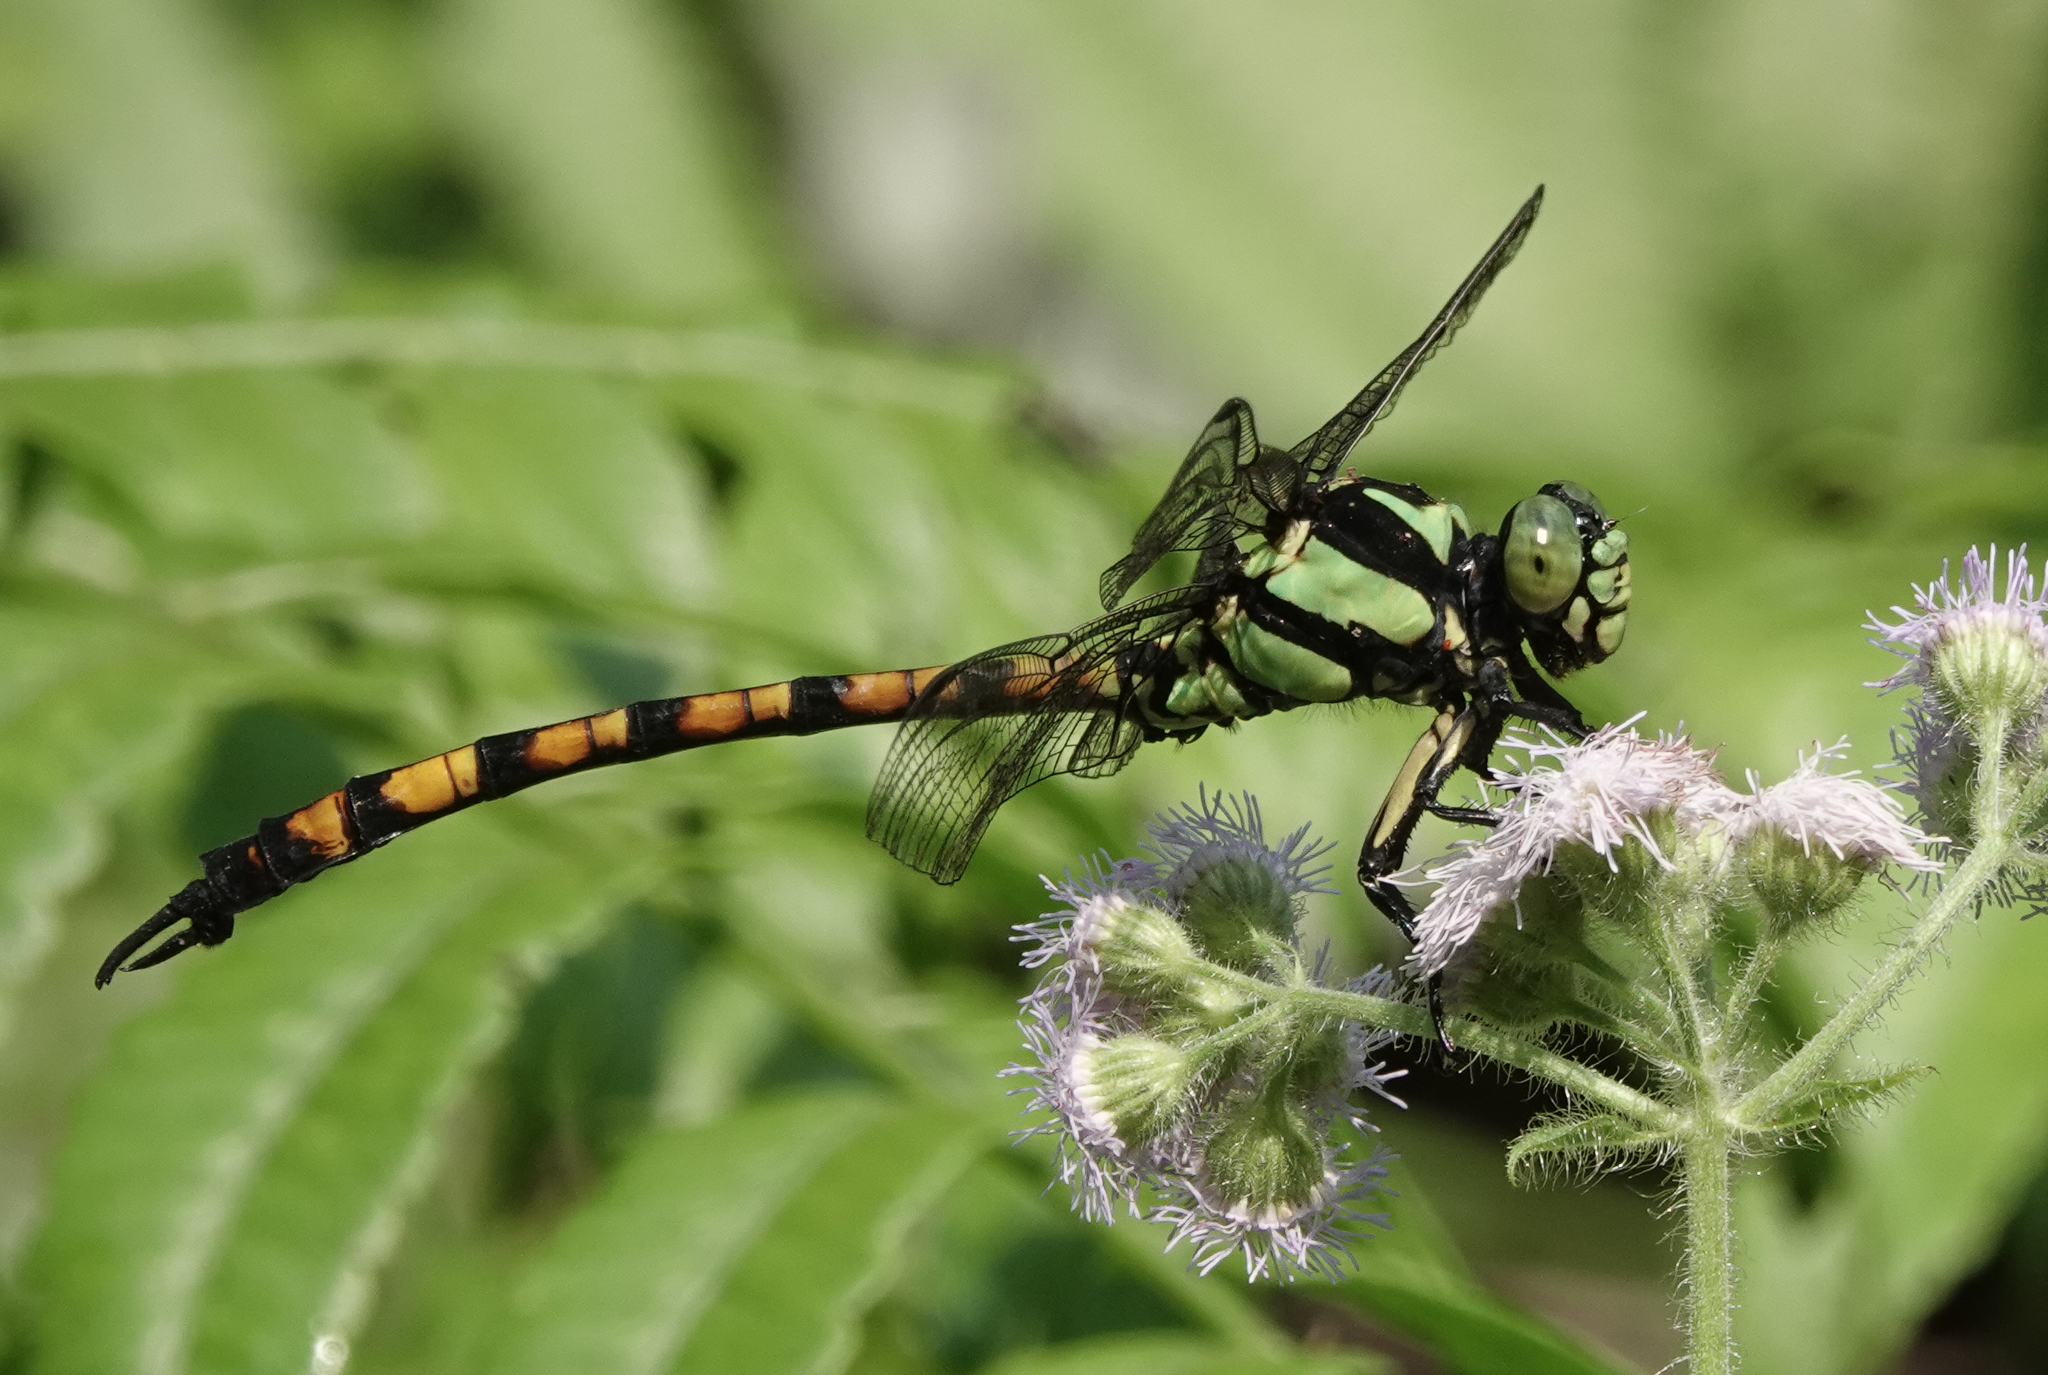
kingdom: Animalia
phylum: Arthropoda
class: Insecta
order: Odonata
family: Gomphidae
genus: Megalogomphus
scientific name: Megalogomphus smithii
